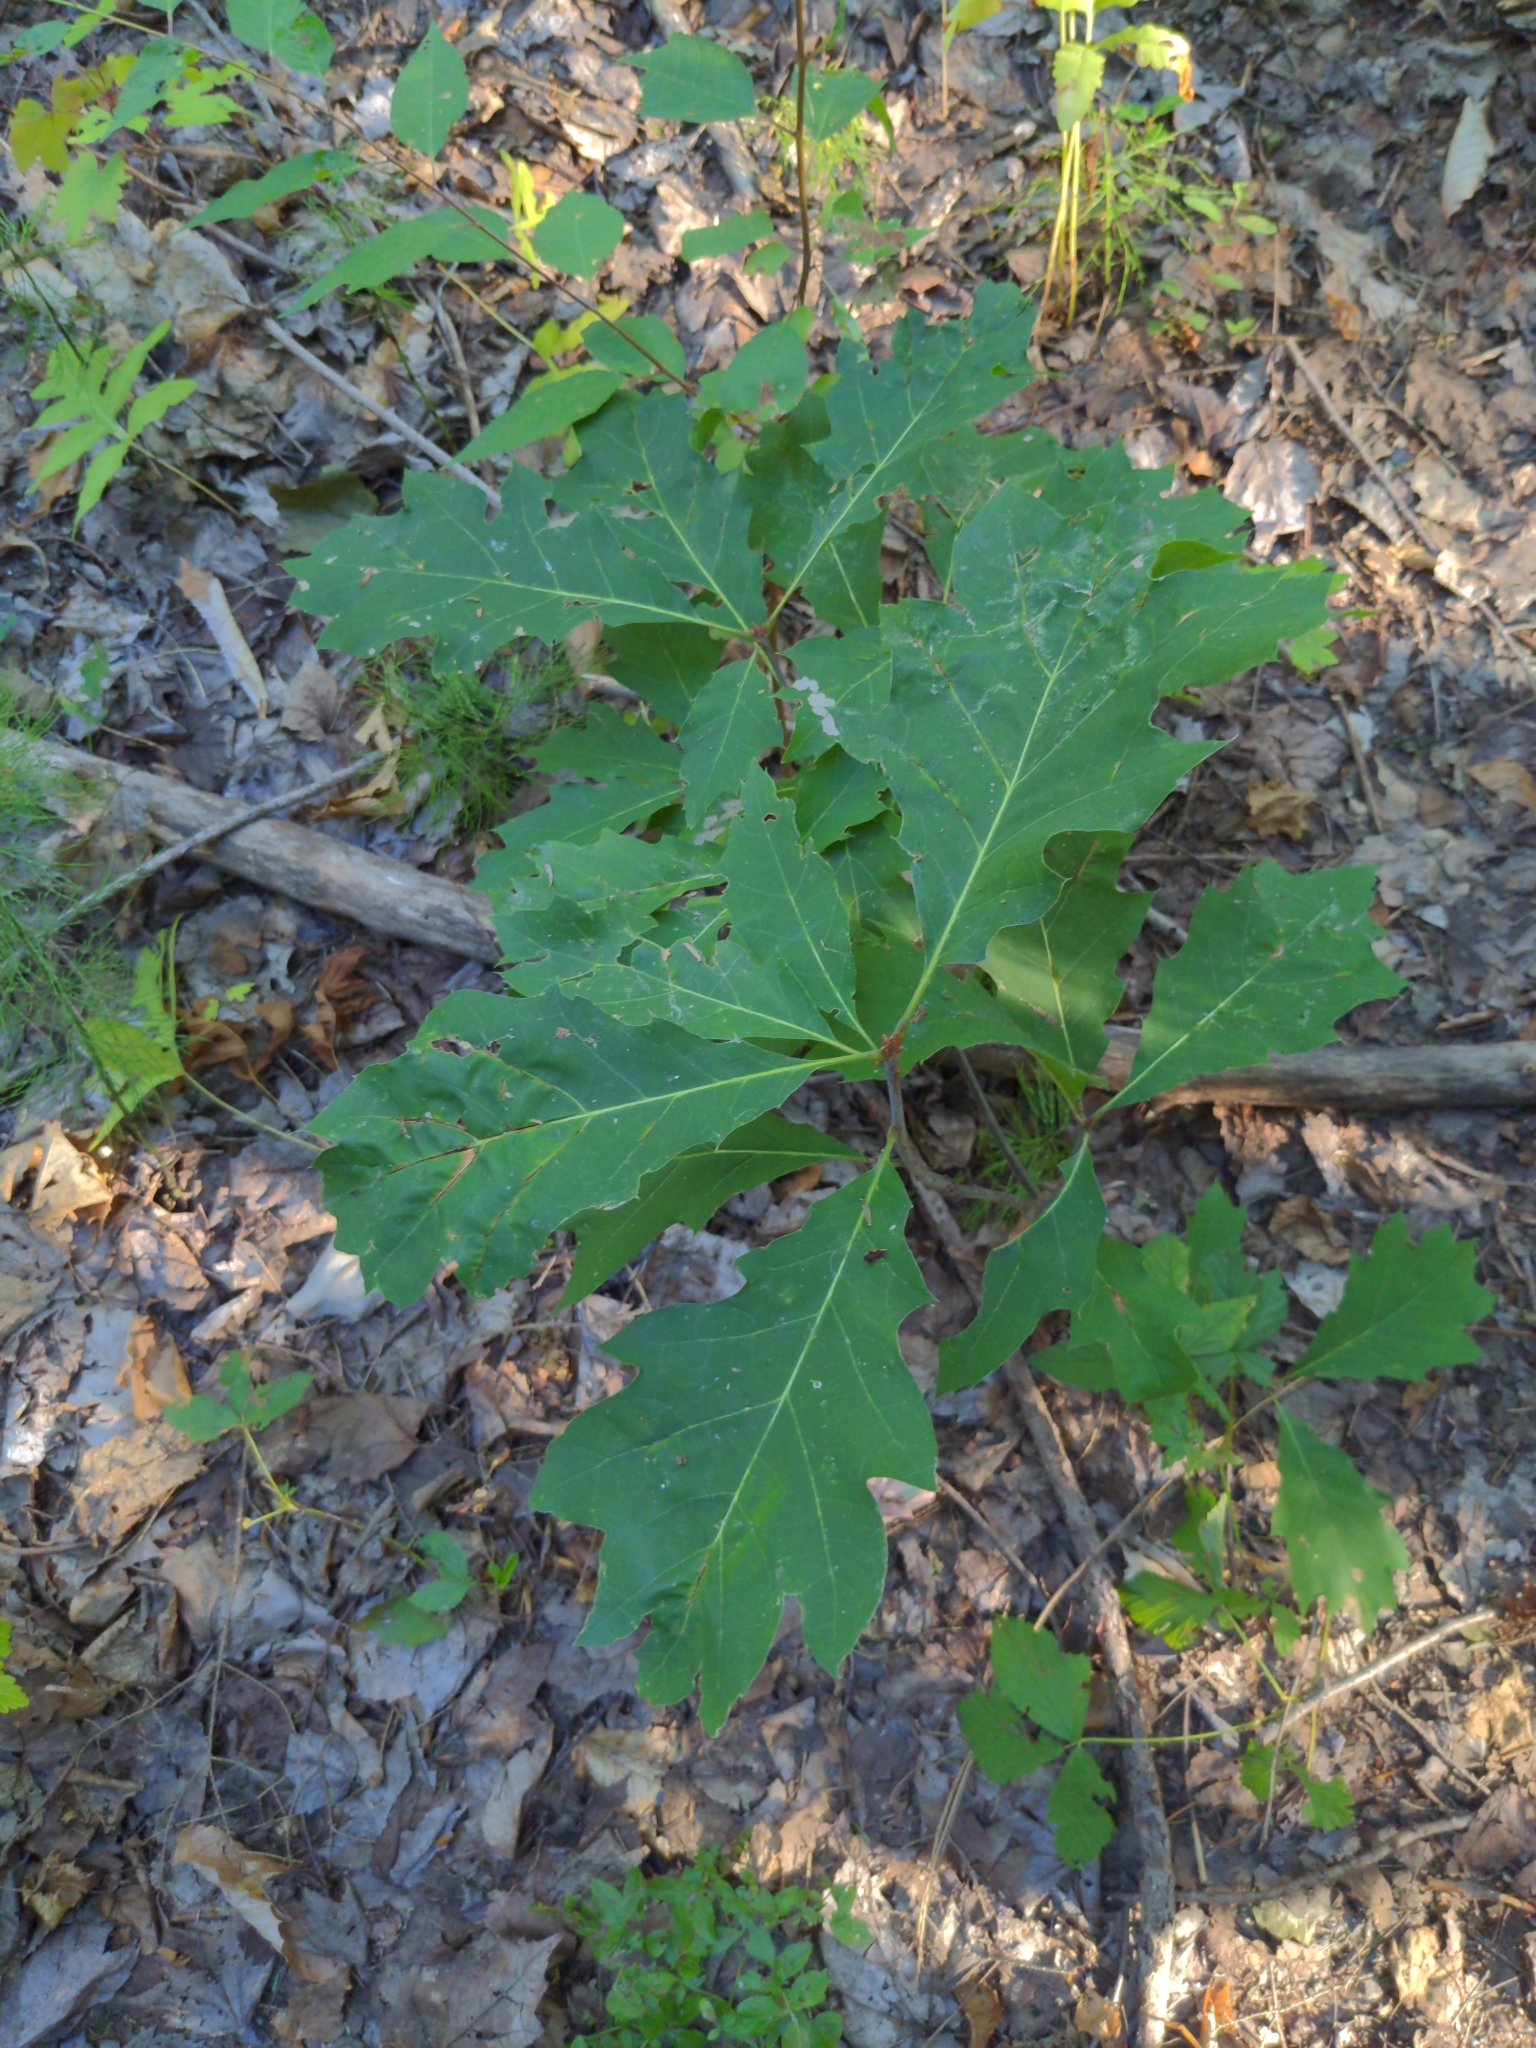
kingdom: Plantae
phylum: Tracheophyta
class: Magnoliopsida
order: Fagales
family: Fagaceae
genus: Quercus
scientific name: Quercus rubra
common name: Red oak
